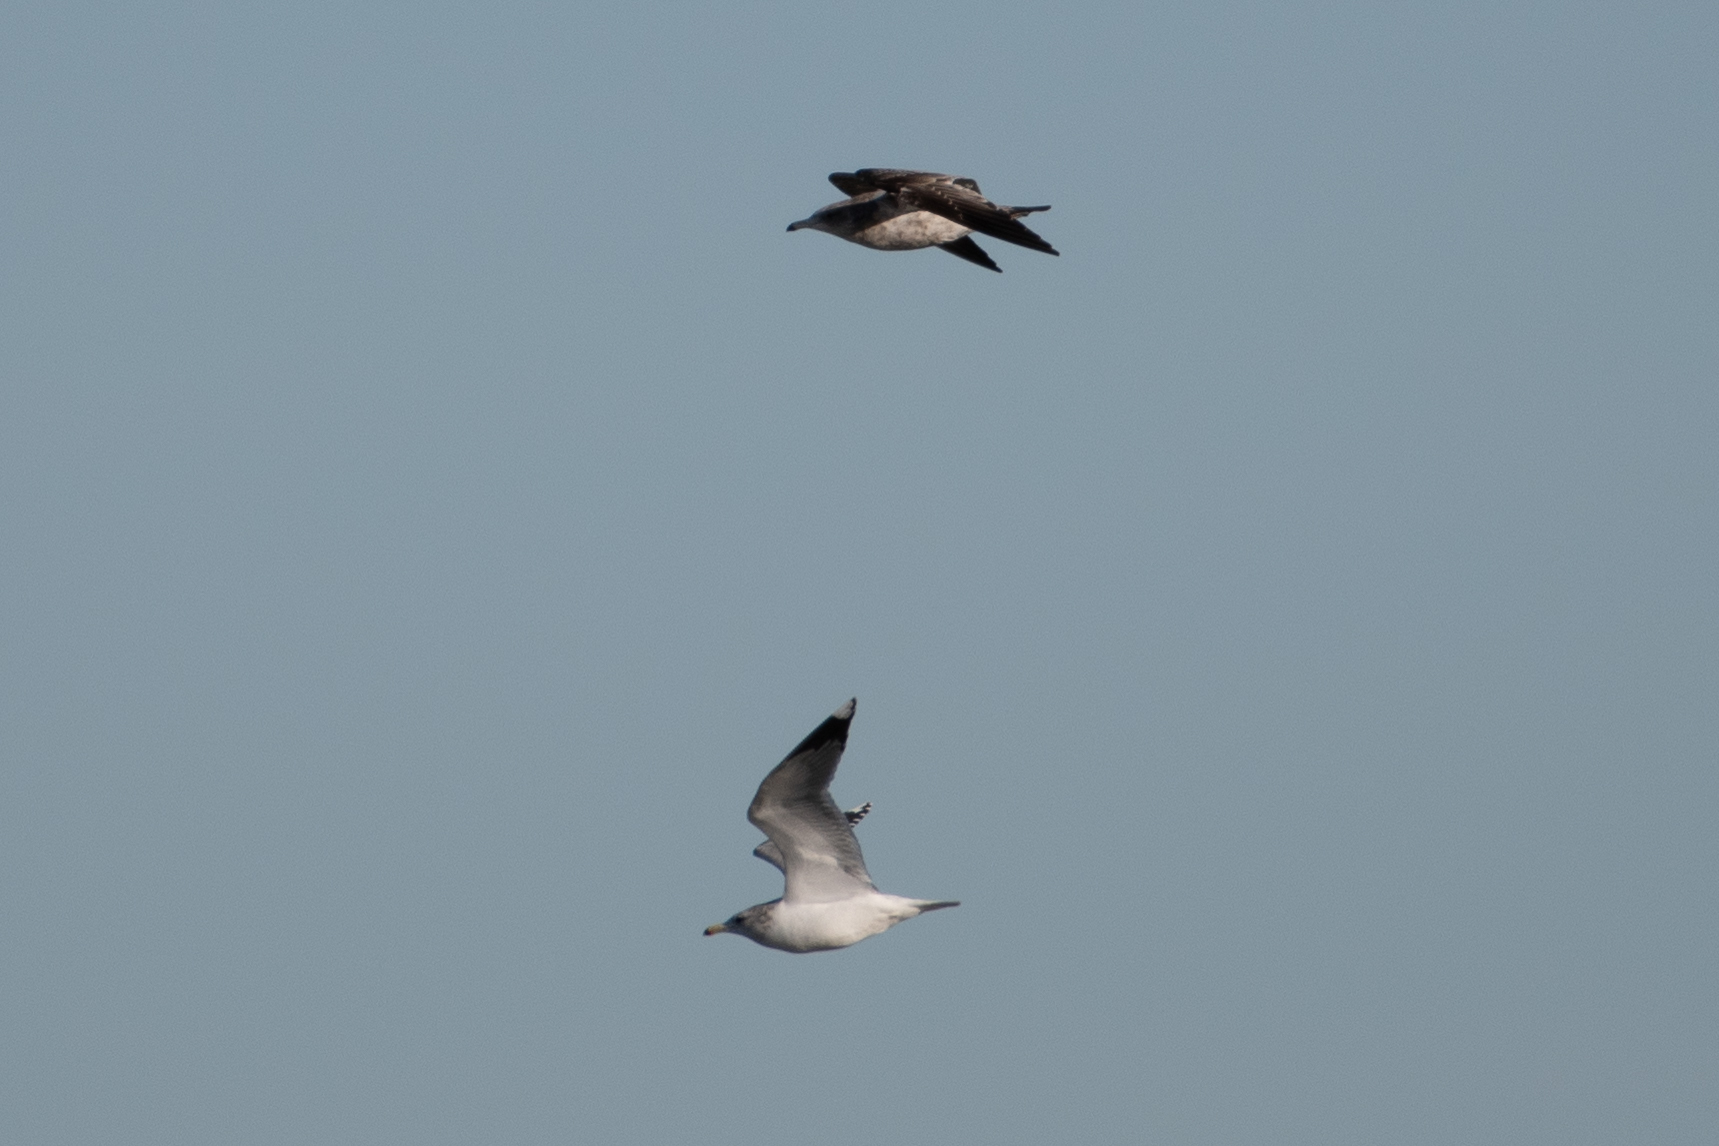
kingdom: Animalia
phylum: Chordata
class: Aves
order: Charadriiformes
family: Laridae
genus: Larus
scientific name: Larus californicus
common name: California gull
